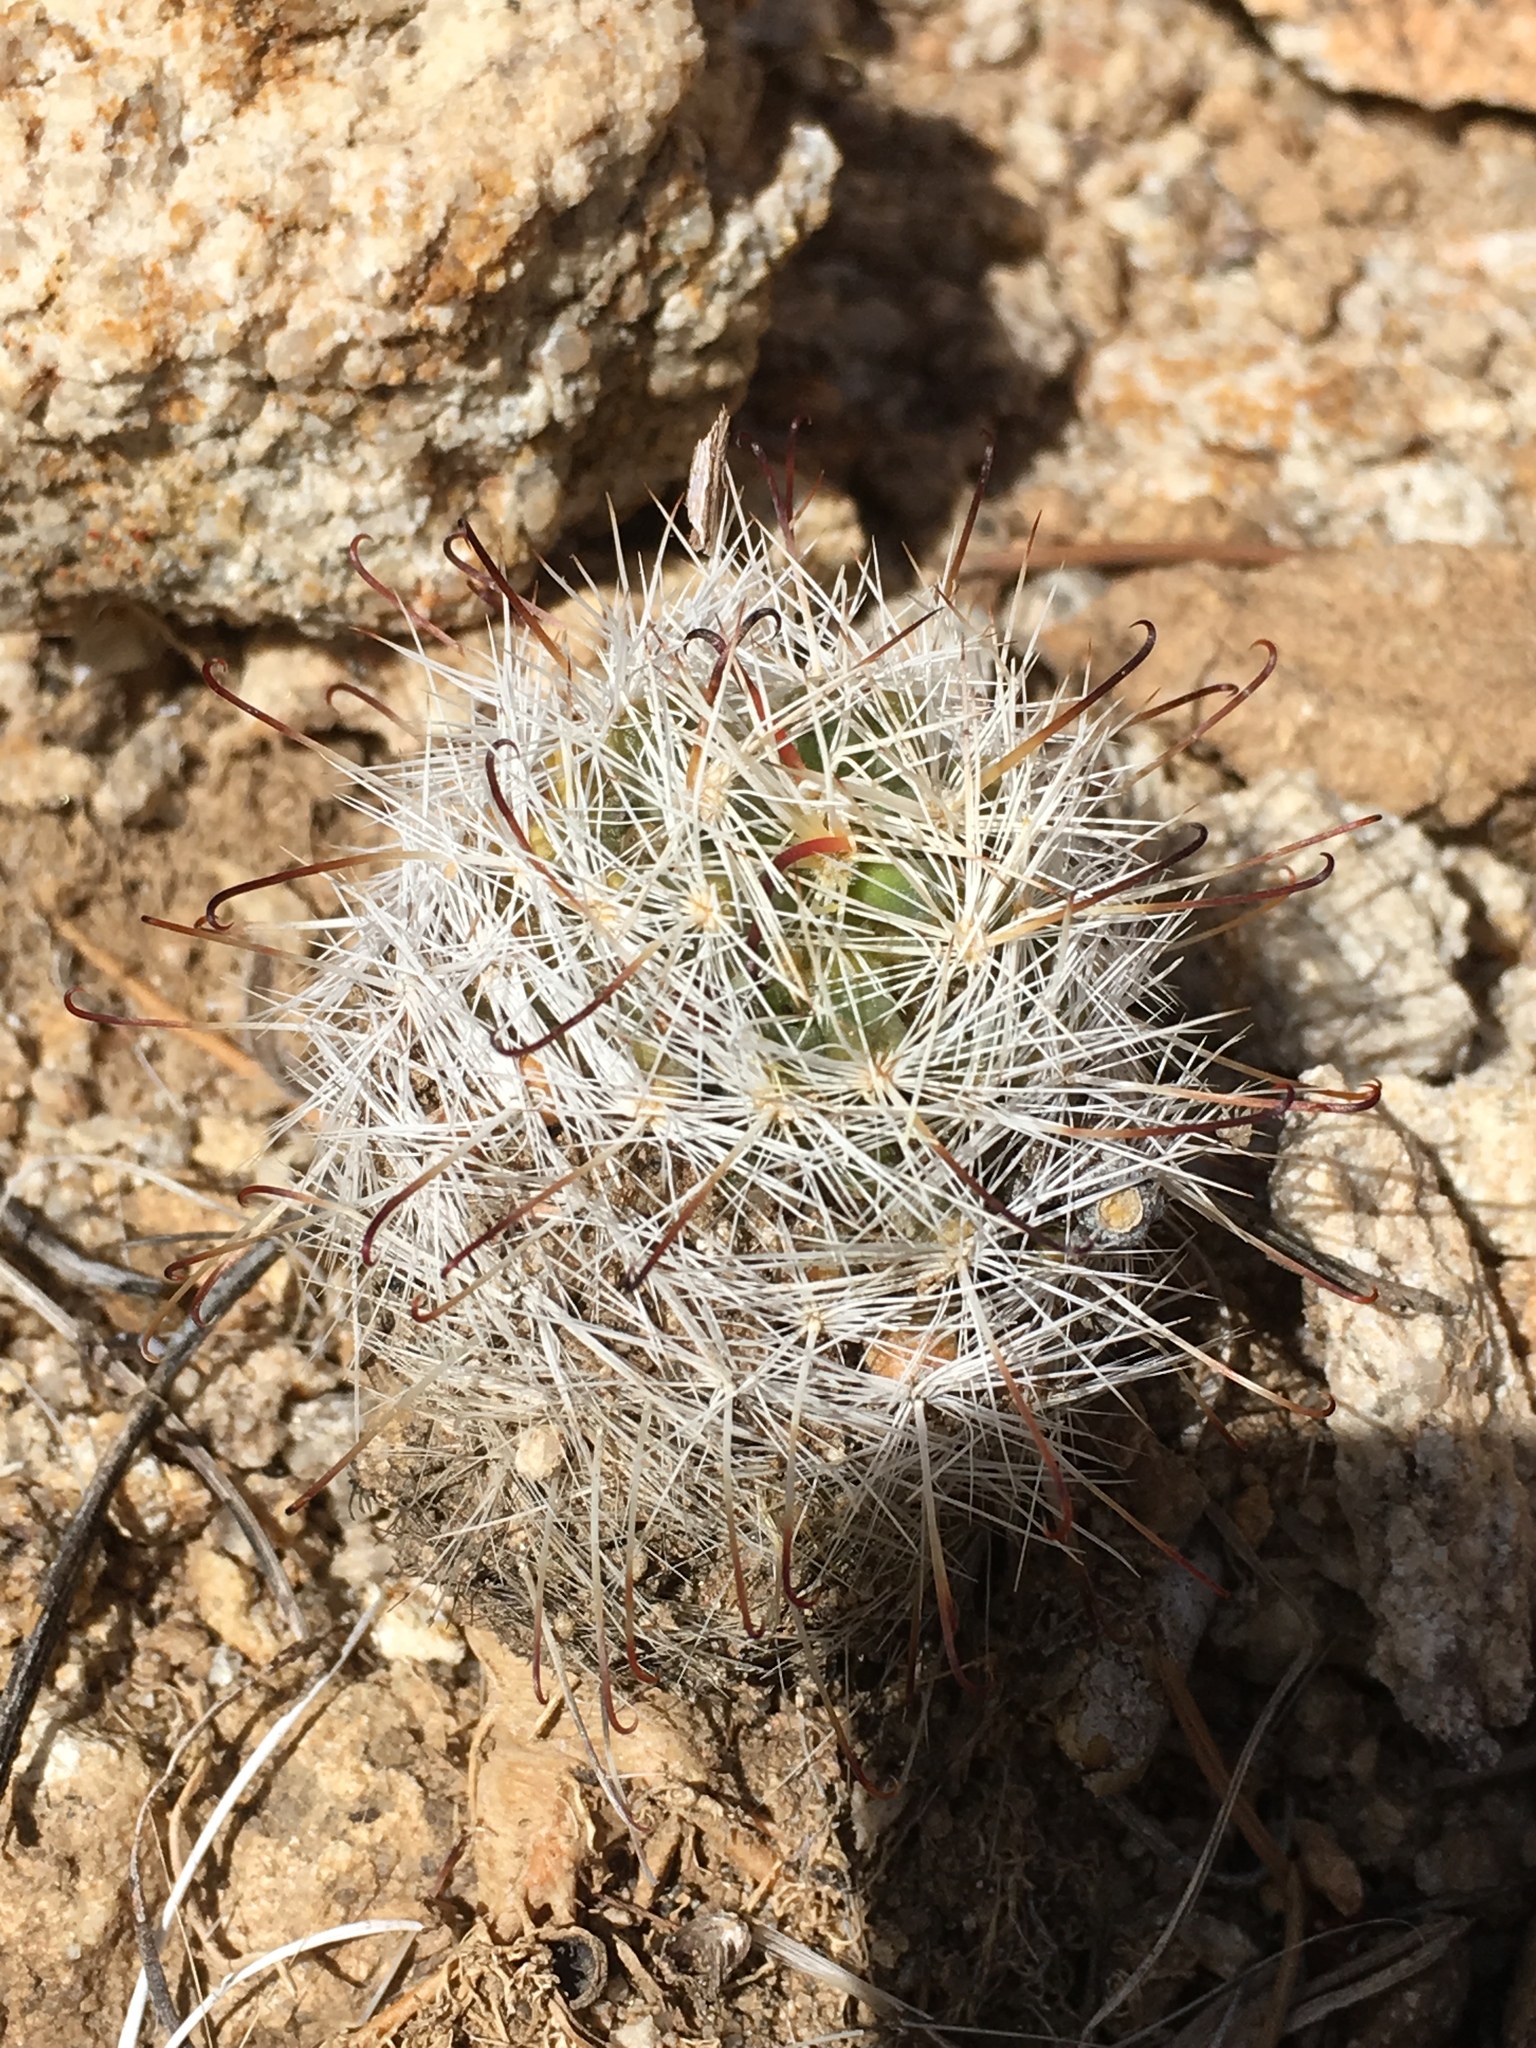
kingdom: Plantae
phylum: Tracheophyta
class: Magnoliopsida
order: Caryophyllales
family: Cactaceae
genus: Cochemiea
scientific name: Cochemiea tetrancistra
